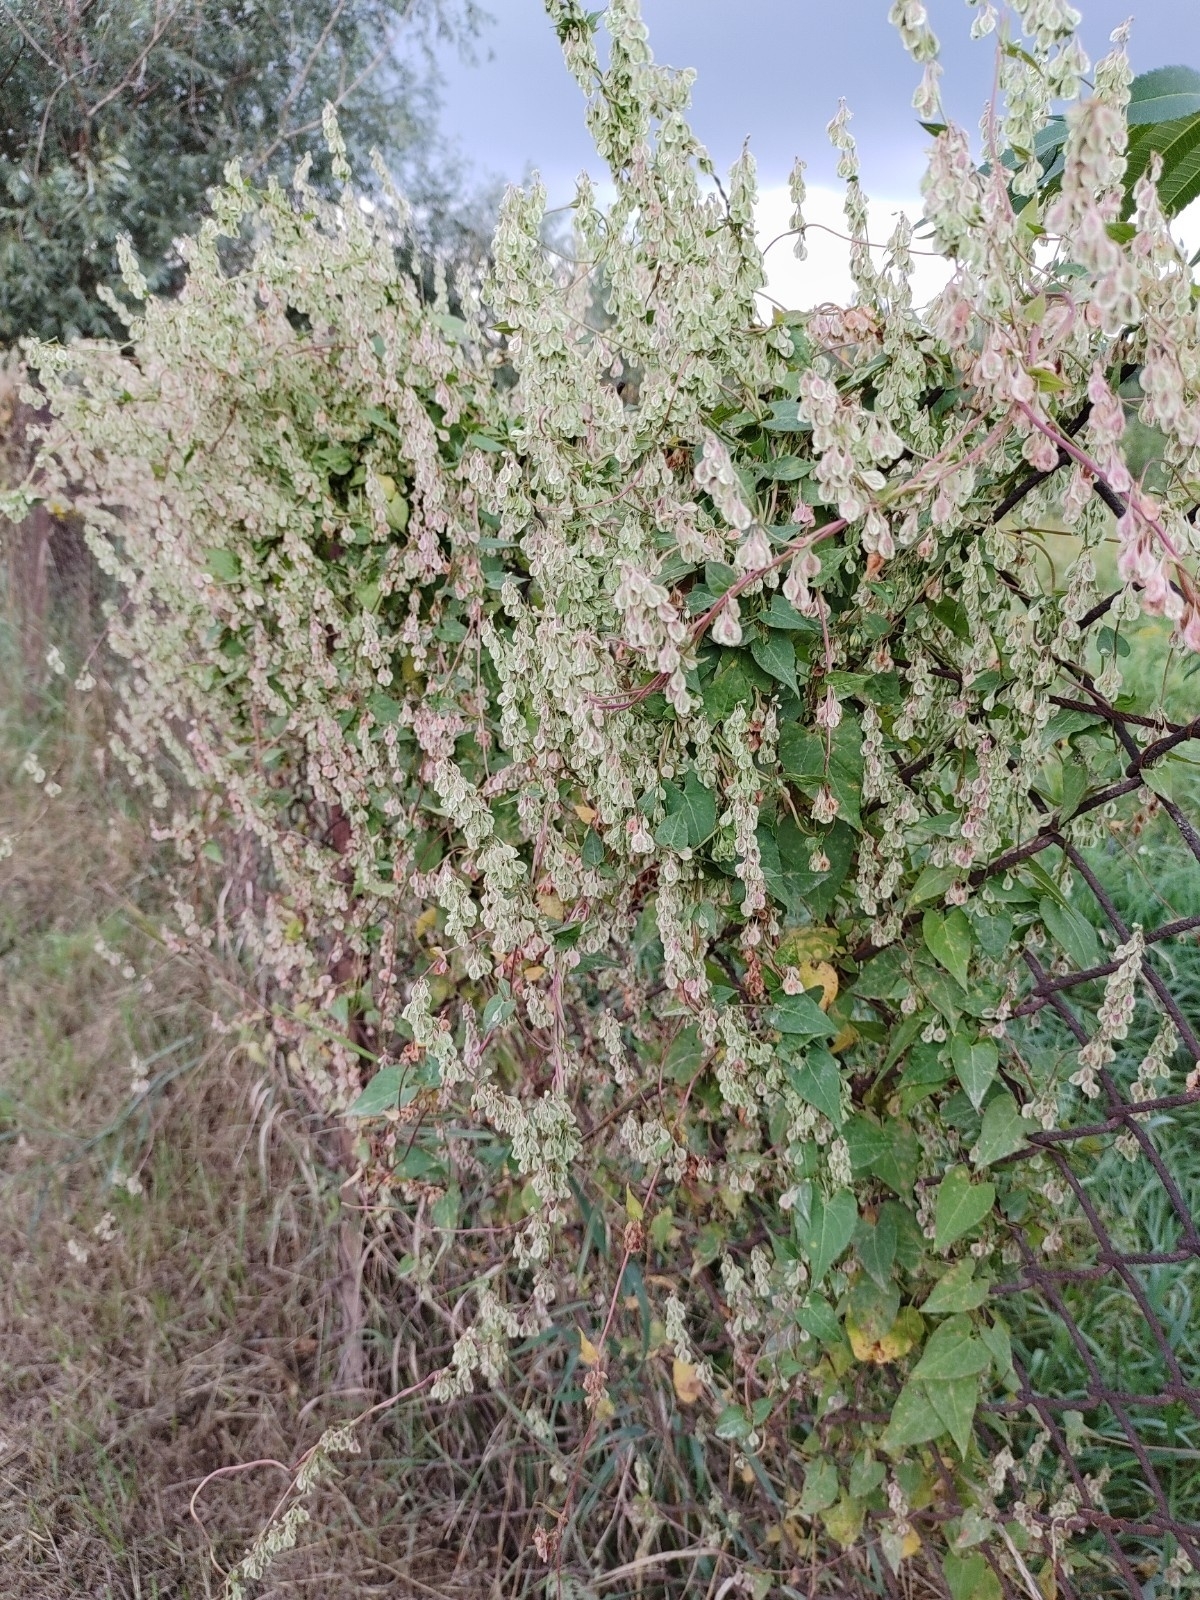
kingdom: Plantae
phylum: Tracheophyta
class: Magnoliopsida
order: Caryophyllales
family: Polygonaceae
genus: Fallopia
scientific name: Fallopia dumetorum
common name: Copse-bindweed
